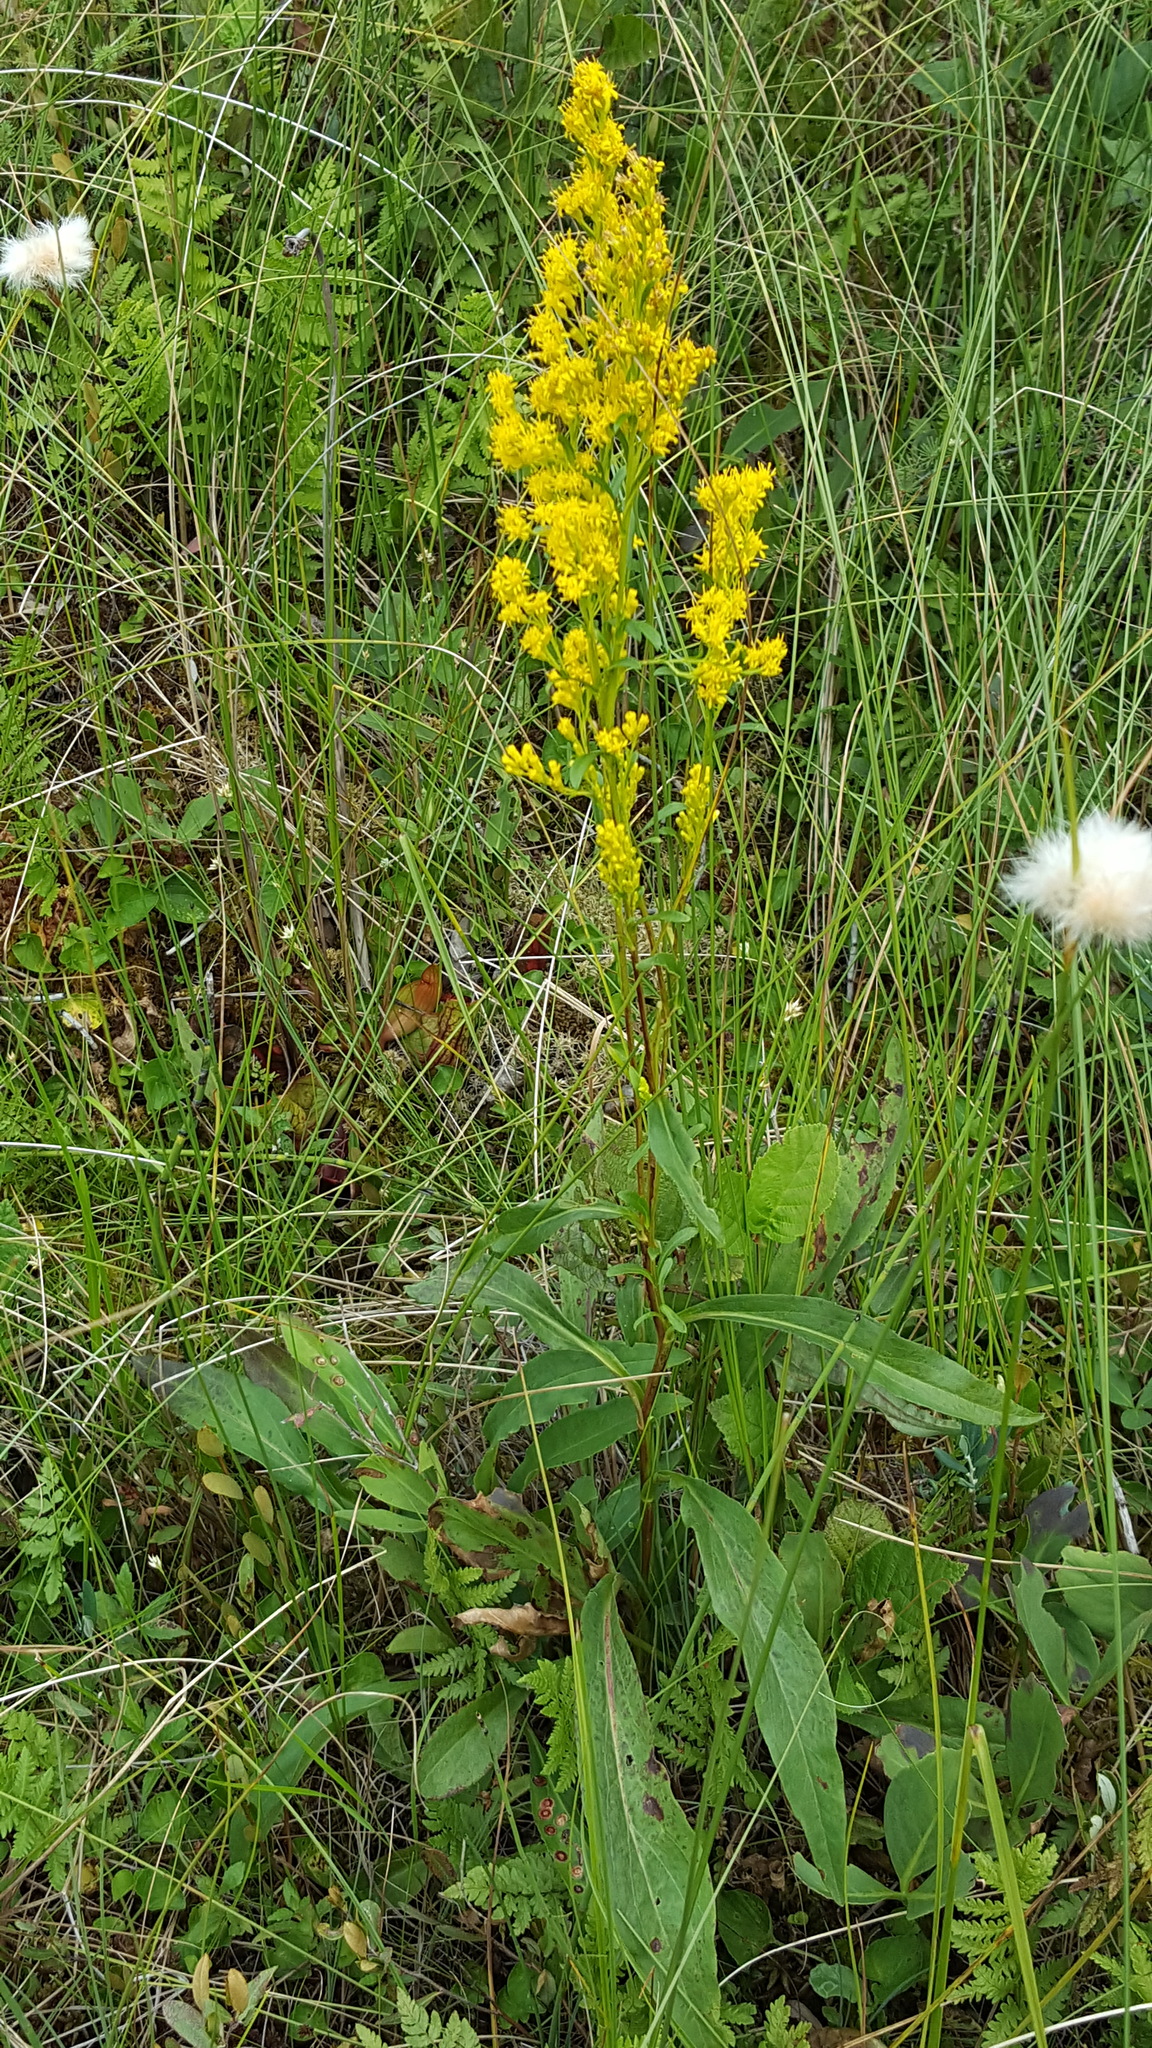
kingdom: Plantae
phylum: Tracheophyta
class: Magnoliopsida
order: Asterales
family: Asteraceae
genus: Solidago
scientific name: Solidago uliginosa
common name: Bog goldenrod
